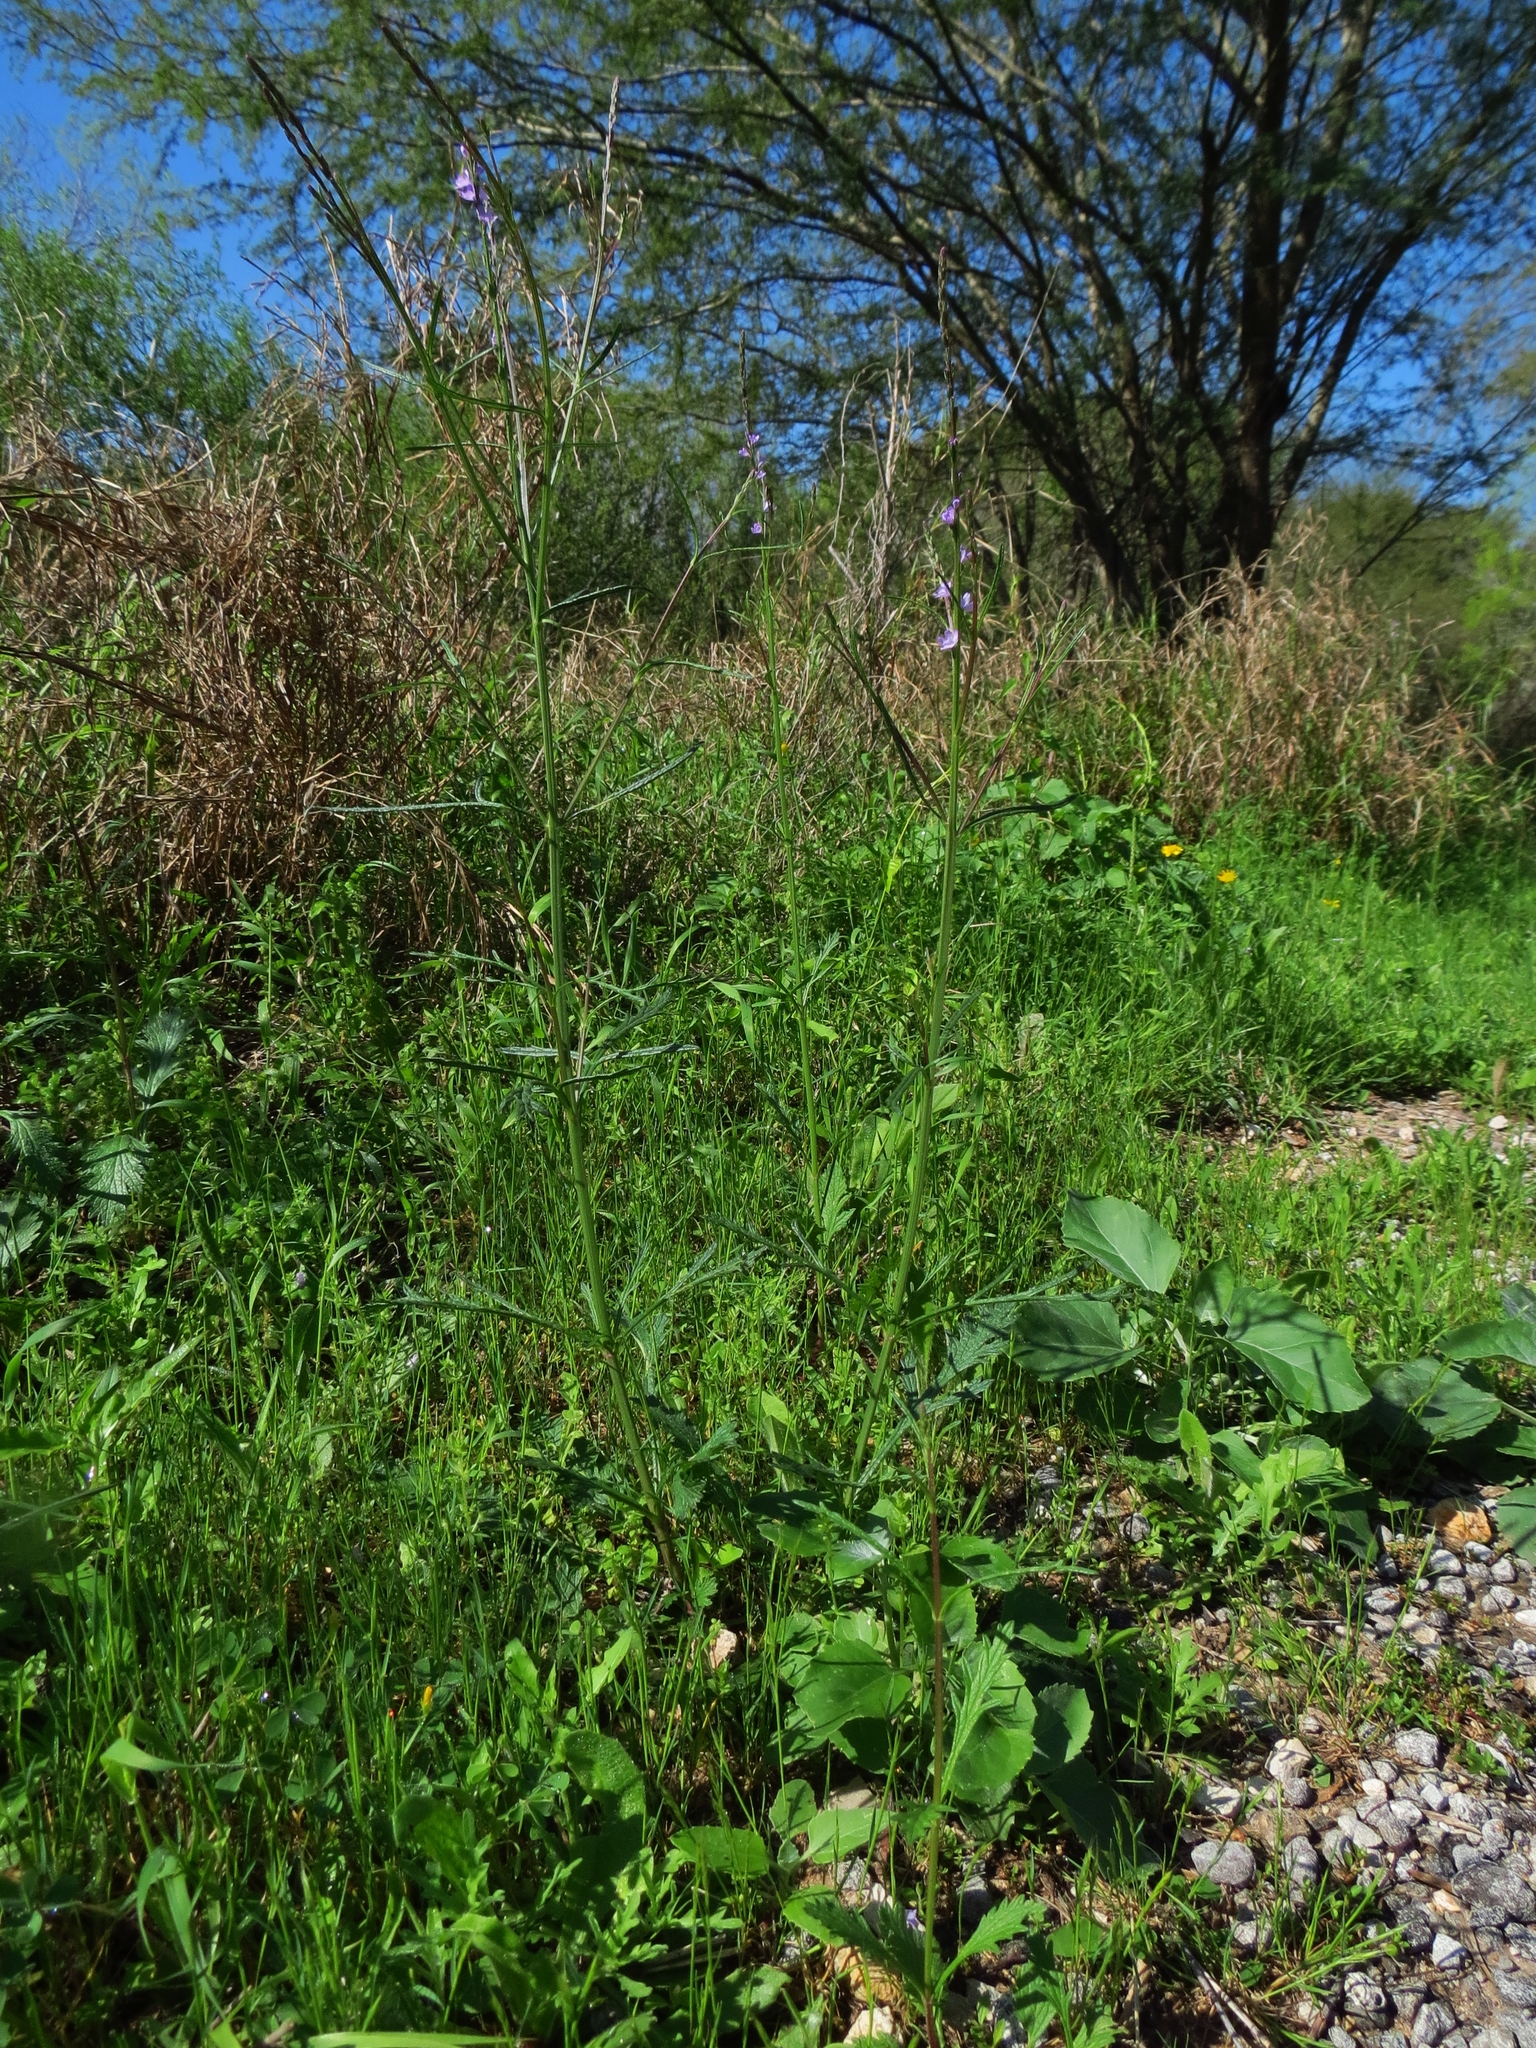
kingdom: Plantae
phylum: Tracheophyta
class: Magnoliopsida
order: Lamiales
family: Verbenaceae
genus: Verbena
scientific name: Verbena halei
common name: Texas vervain
